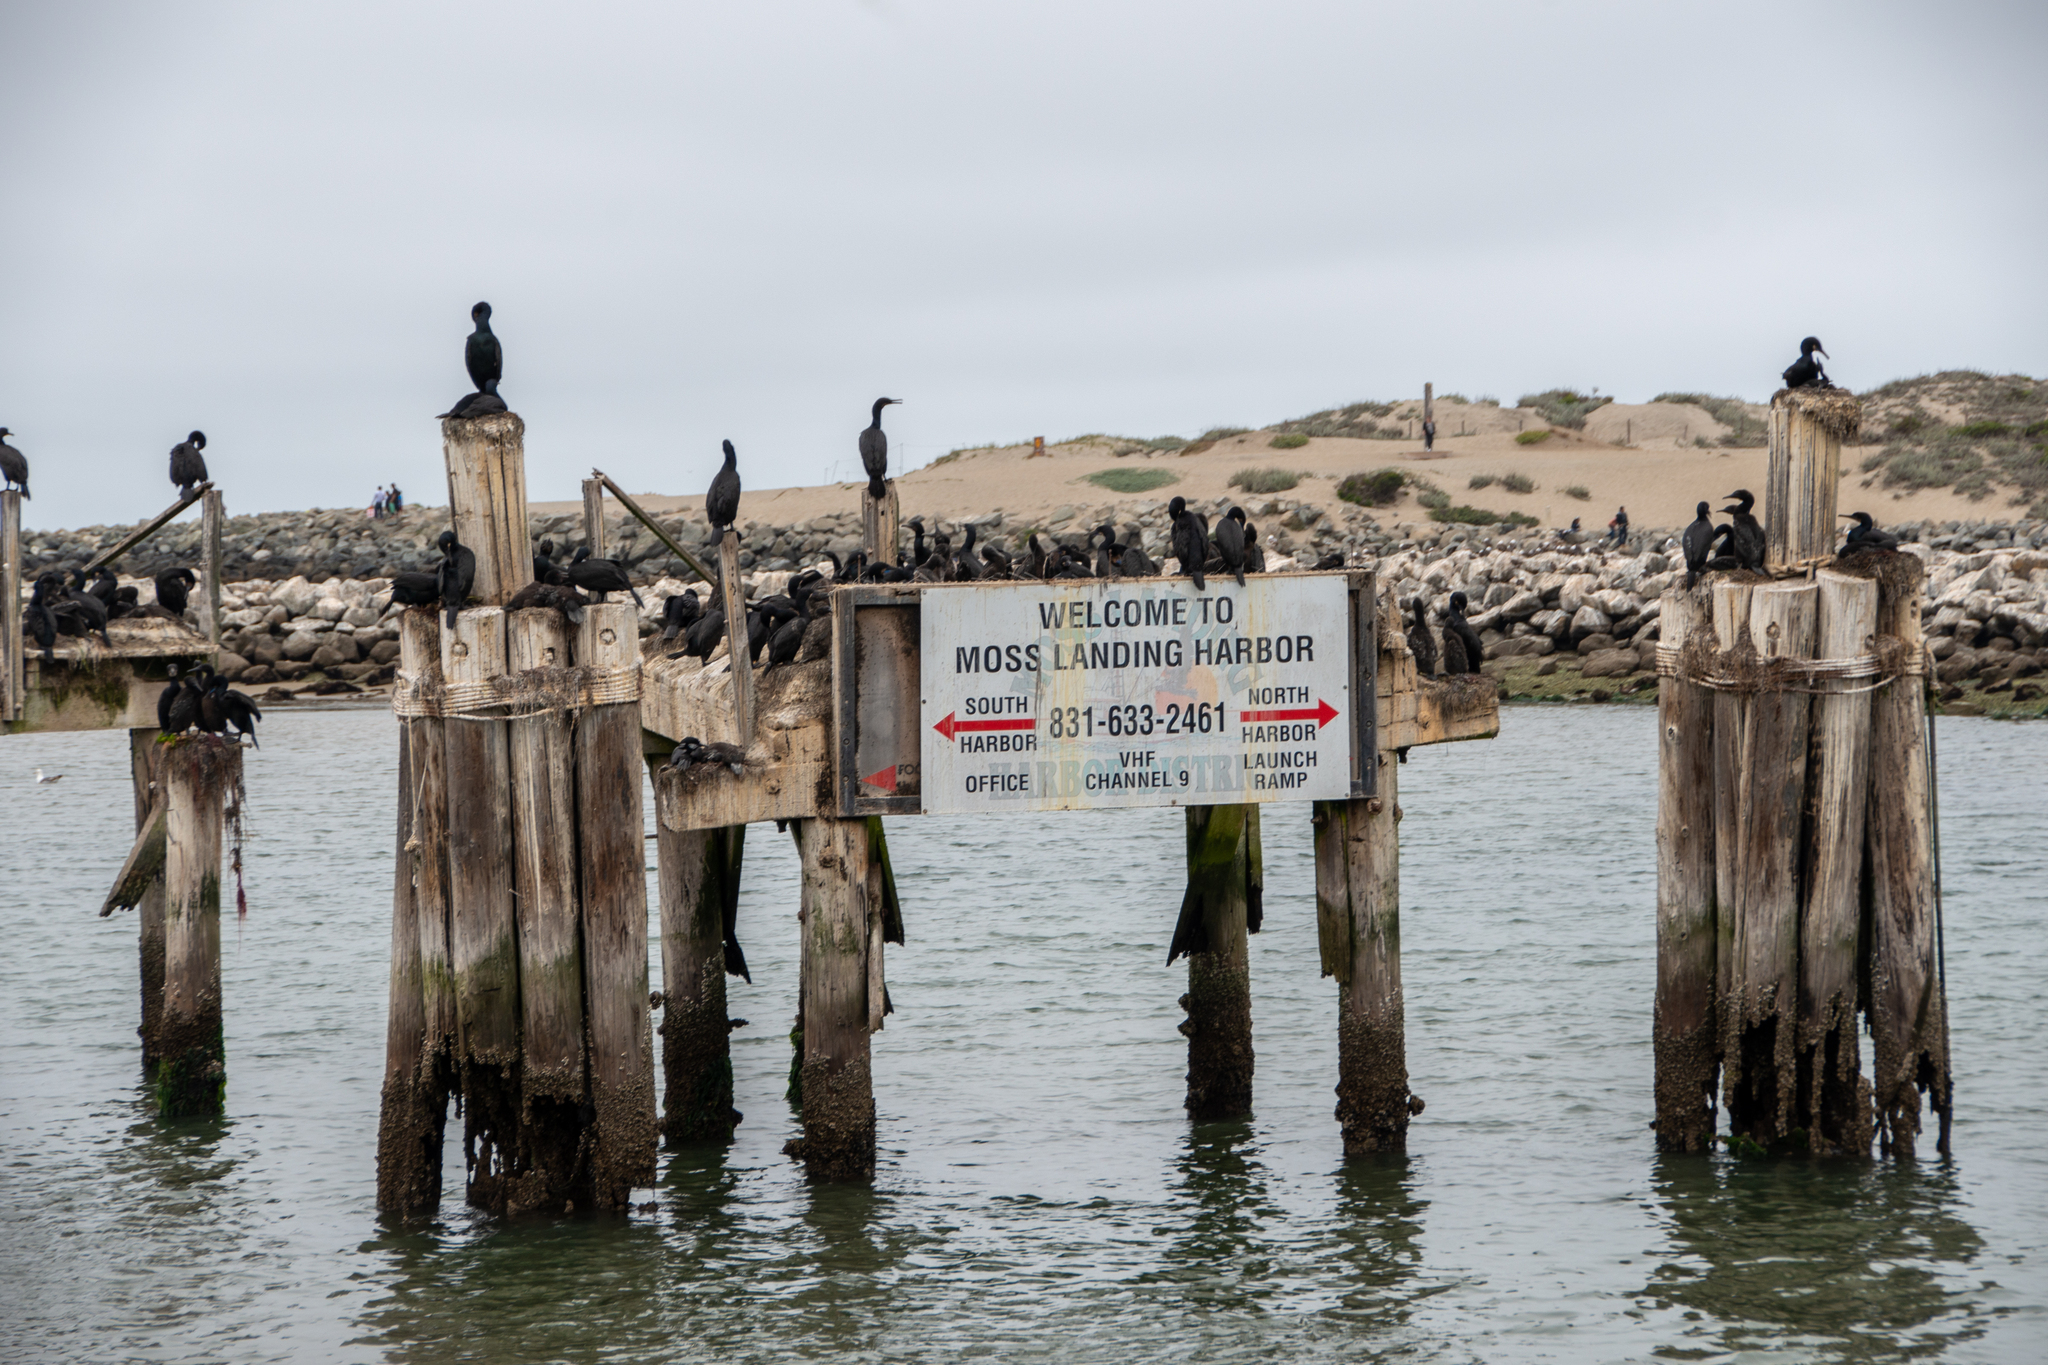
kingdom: Animalia
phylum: Chordata
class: Aves
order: Suliformes
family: Phalacrocoracidae
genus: Urile
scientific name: Urile penicillatus
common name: Brandt's cormorant
